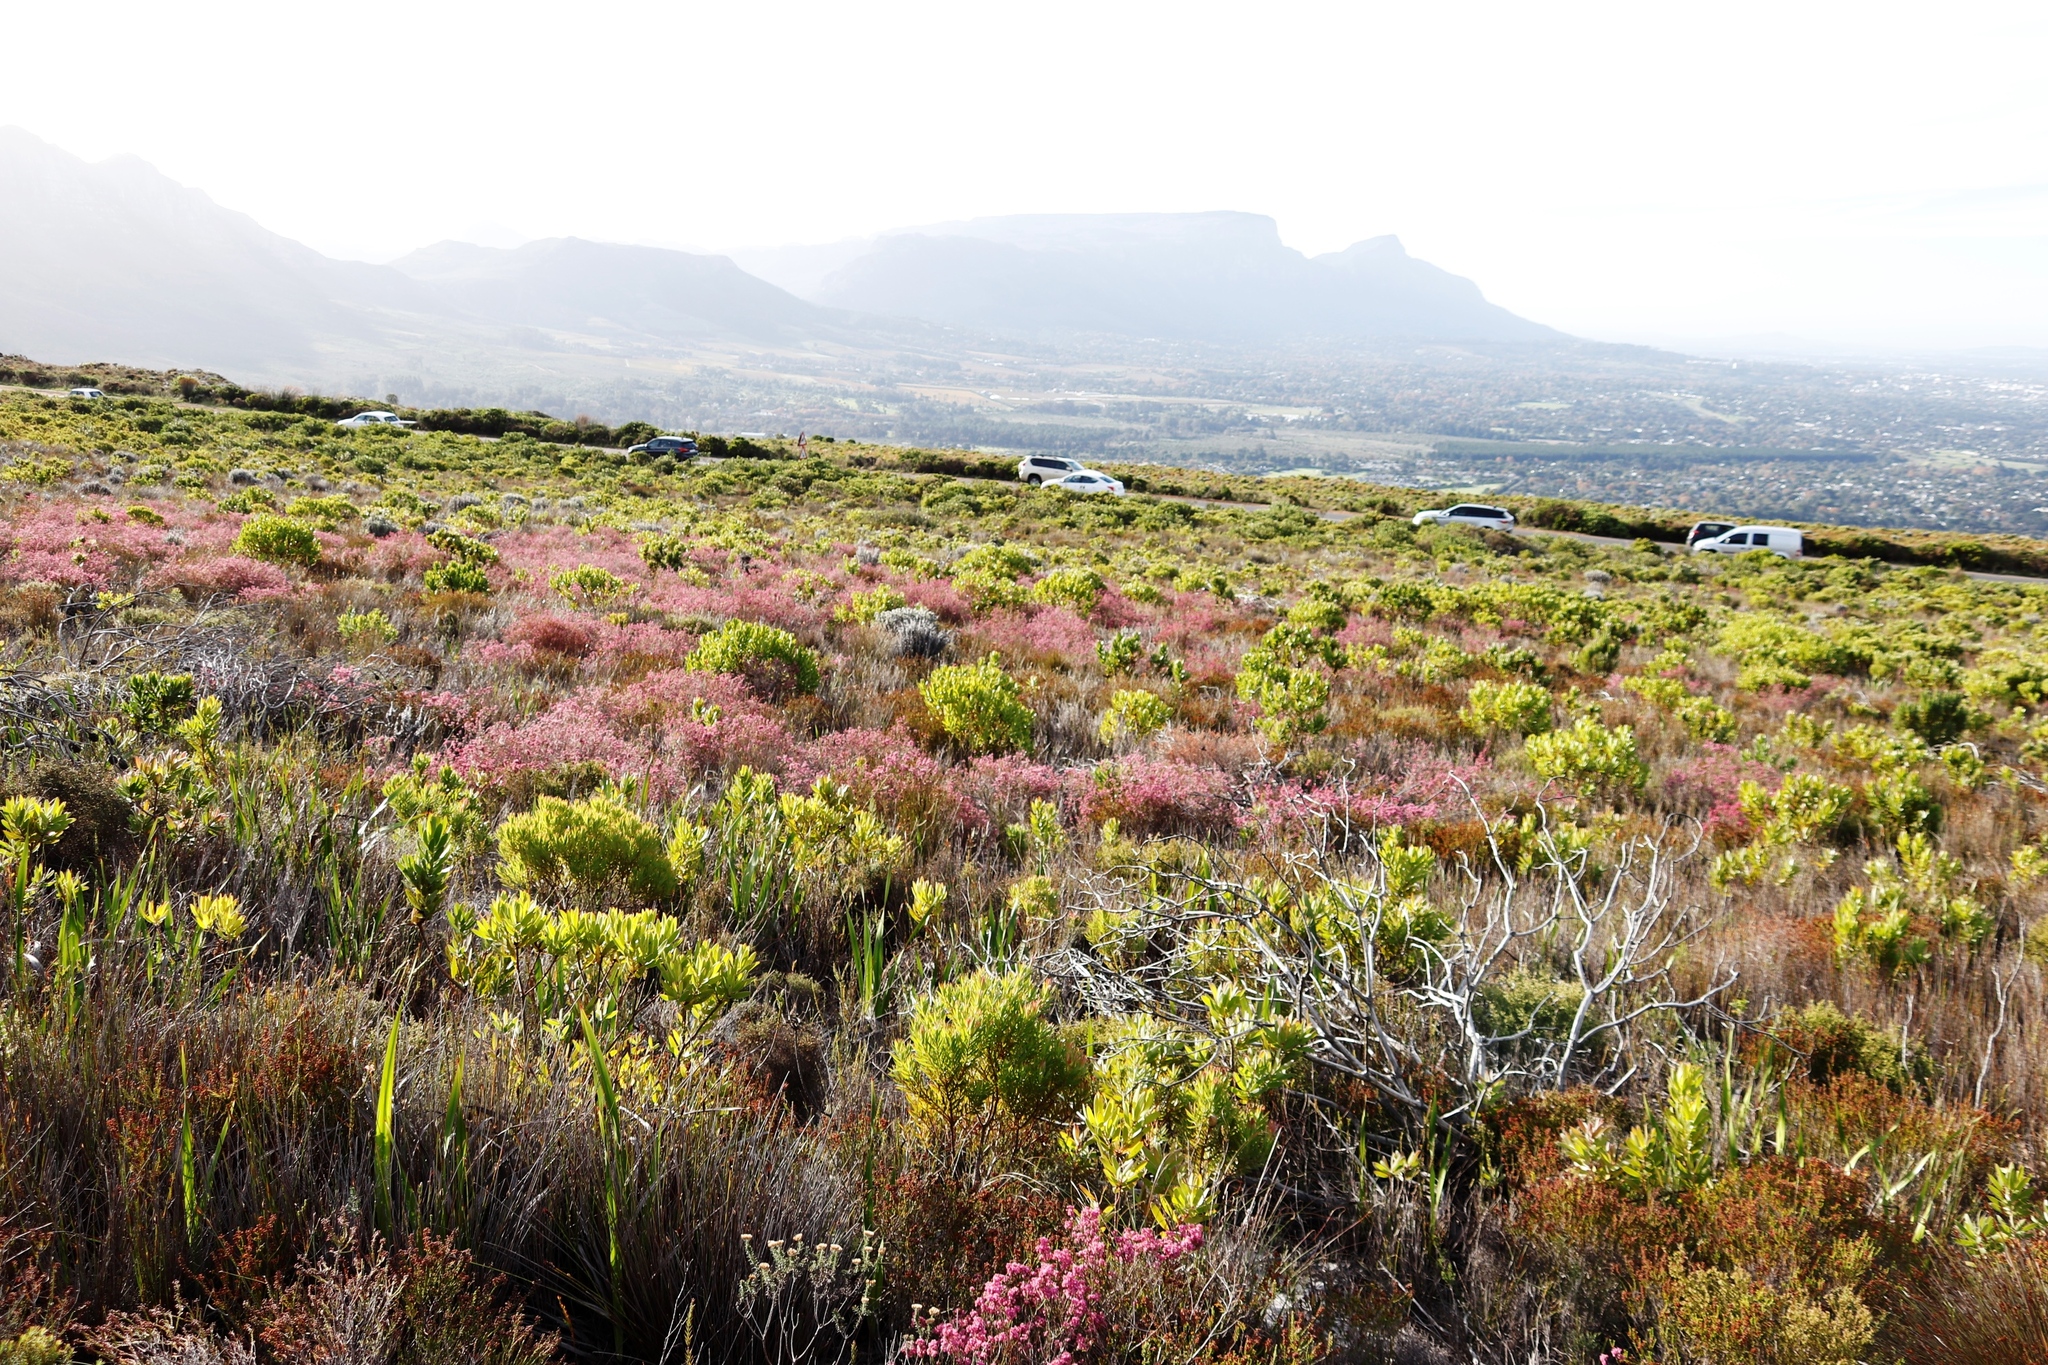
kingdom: Plantae
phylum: Tracheophyta
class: Magnoliopsida
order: Ericales
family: Ericaceae
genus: Erica
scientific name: Erica corifolia
